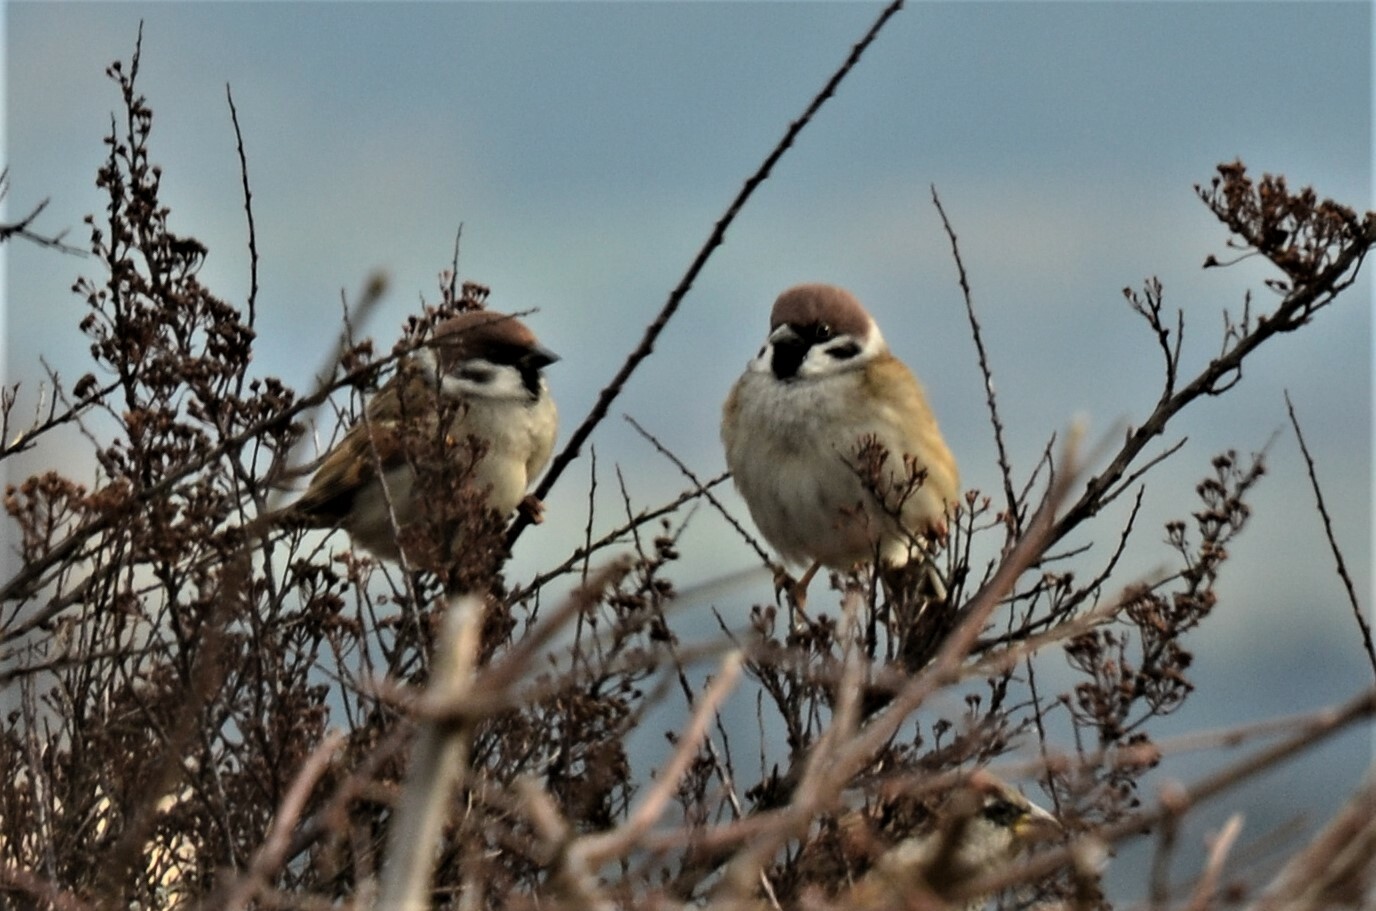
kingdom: Animalia
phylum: Chordata
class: Aves
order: Passeriformes
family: Passeridae
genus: Passer
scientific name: Passer montanus
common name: Eurasian tree sparrow
